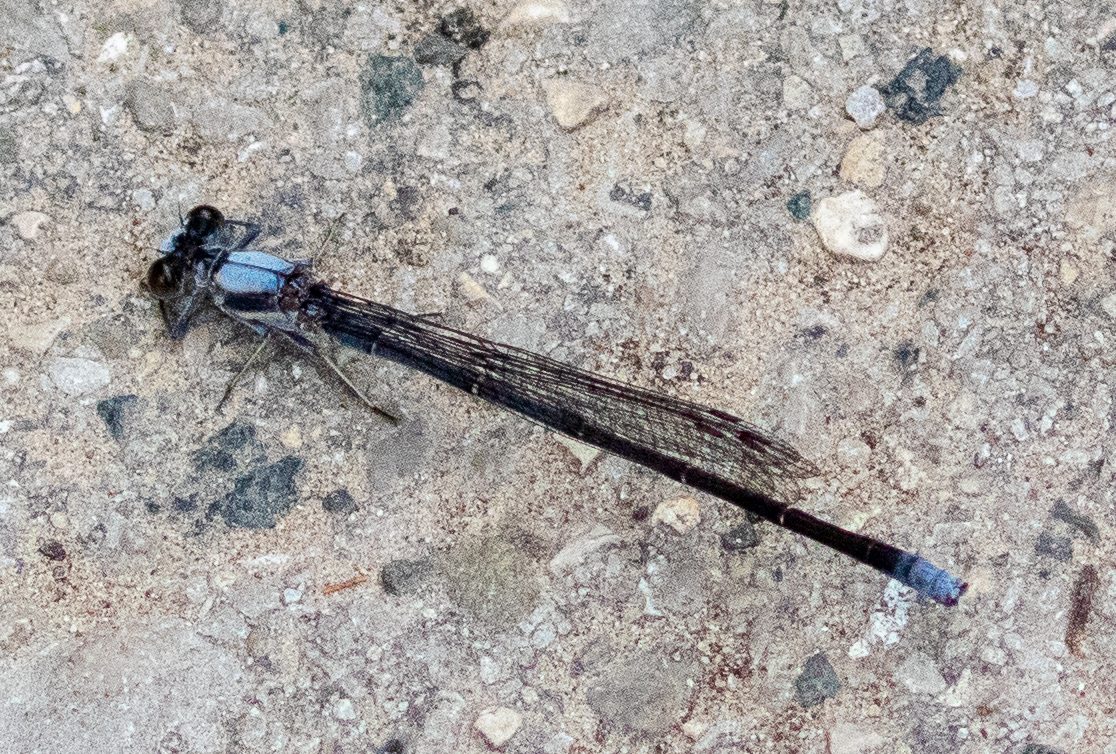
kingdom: Animalia
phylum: Arthropoda
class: Insecta
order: Odonata
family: Coenagrionidae
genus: Argia
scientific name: Argia moesta
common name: Powdered dancer
